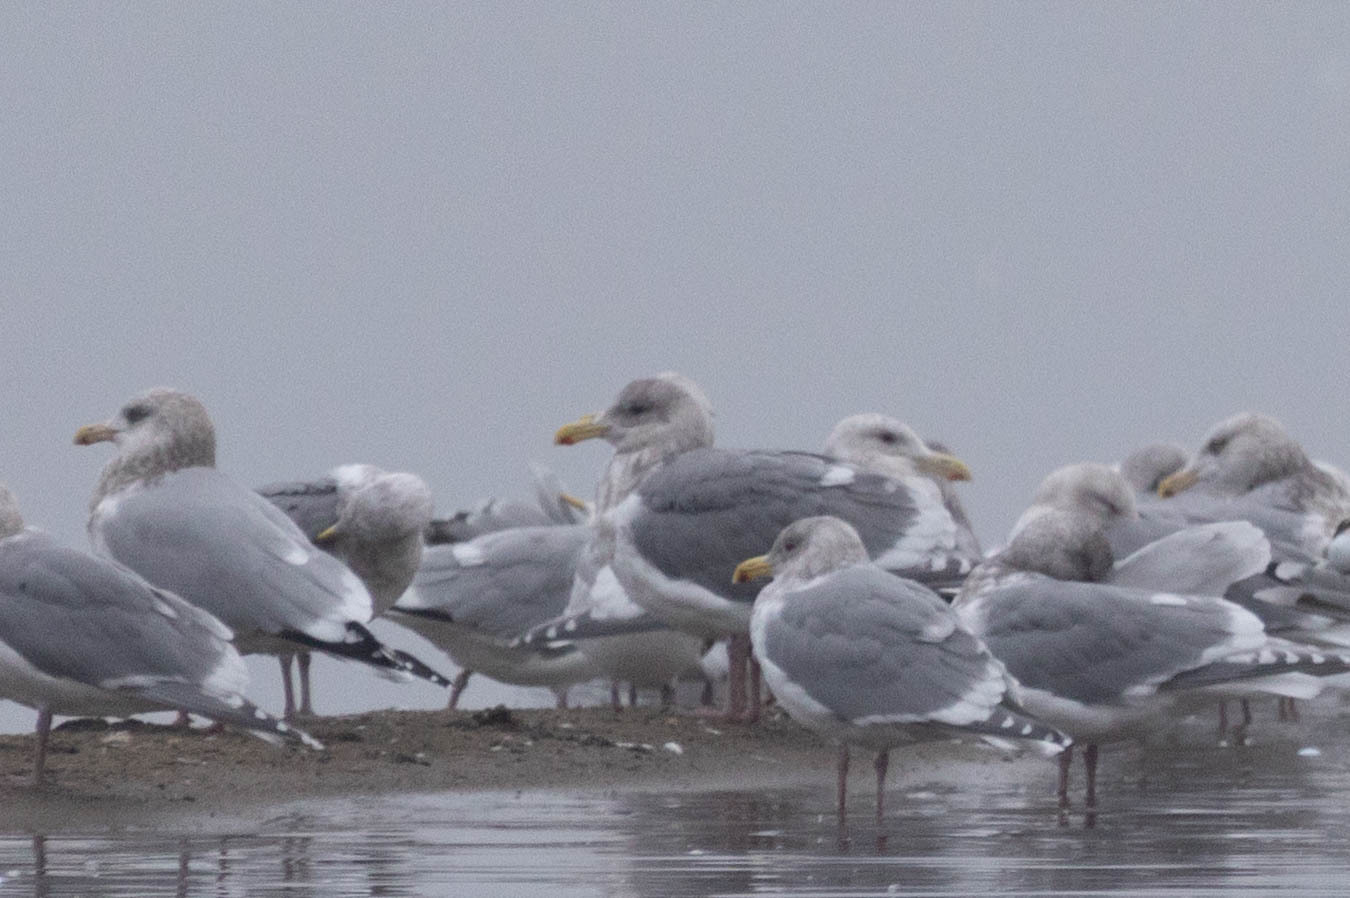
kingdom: Animalia
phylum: Chordata
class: Aves
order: Charadriiformes
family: Laridae
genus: Larus
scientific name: Larus glaucescens
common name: Glaucous-winged gull
